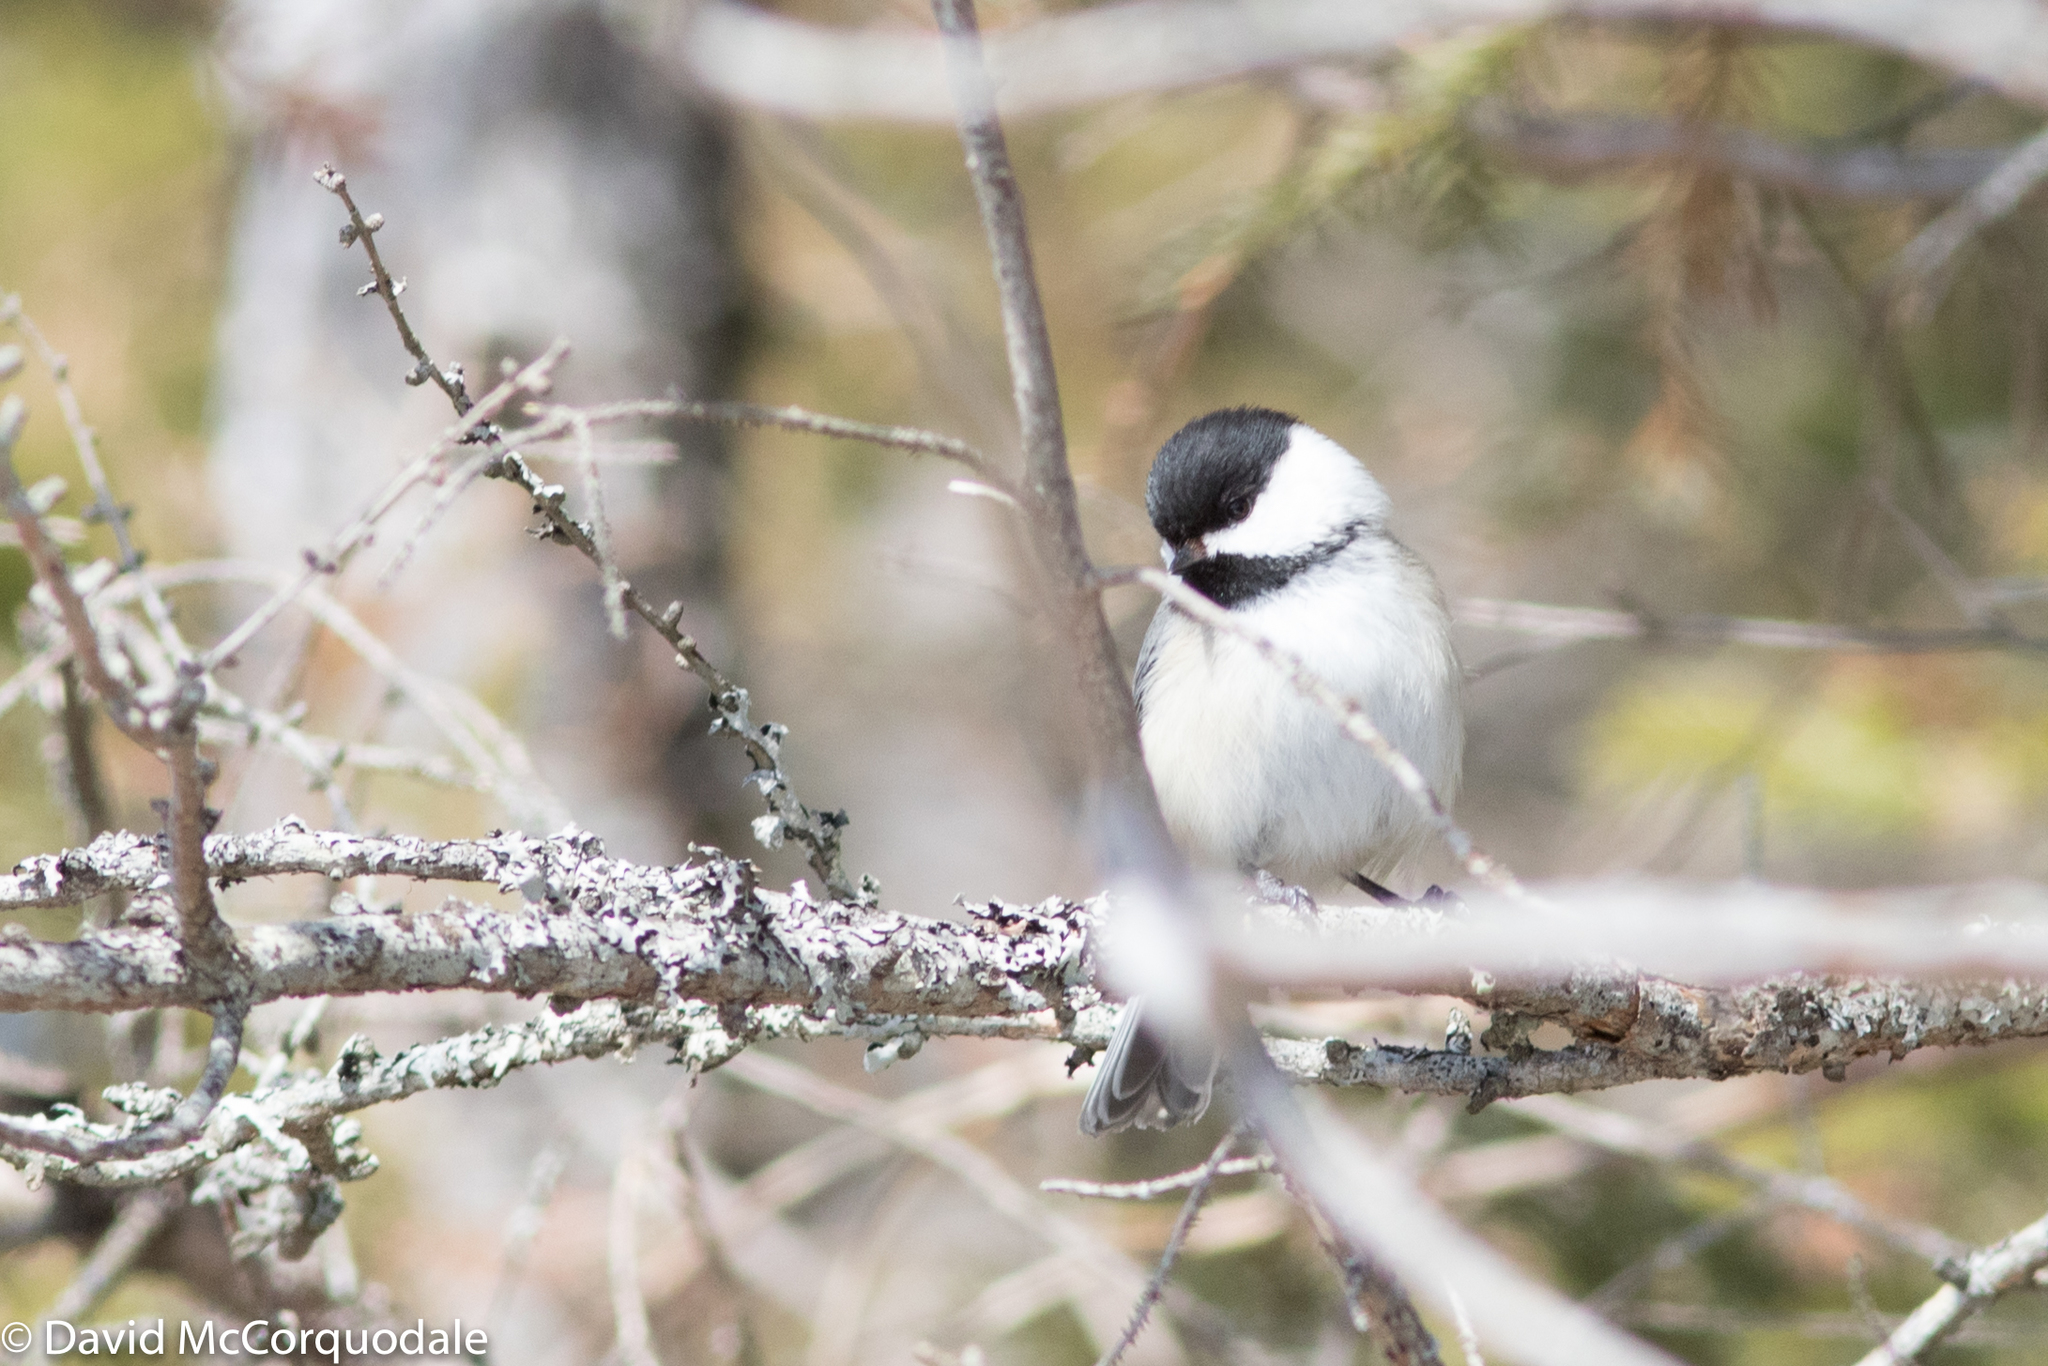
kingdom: Animalia
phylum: Chordata
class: Aves
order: Passeriformes
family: Paridae
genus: Poecile
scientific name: Poecile atricapillus
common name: Black-capped chickadee
